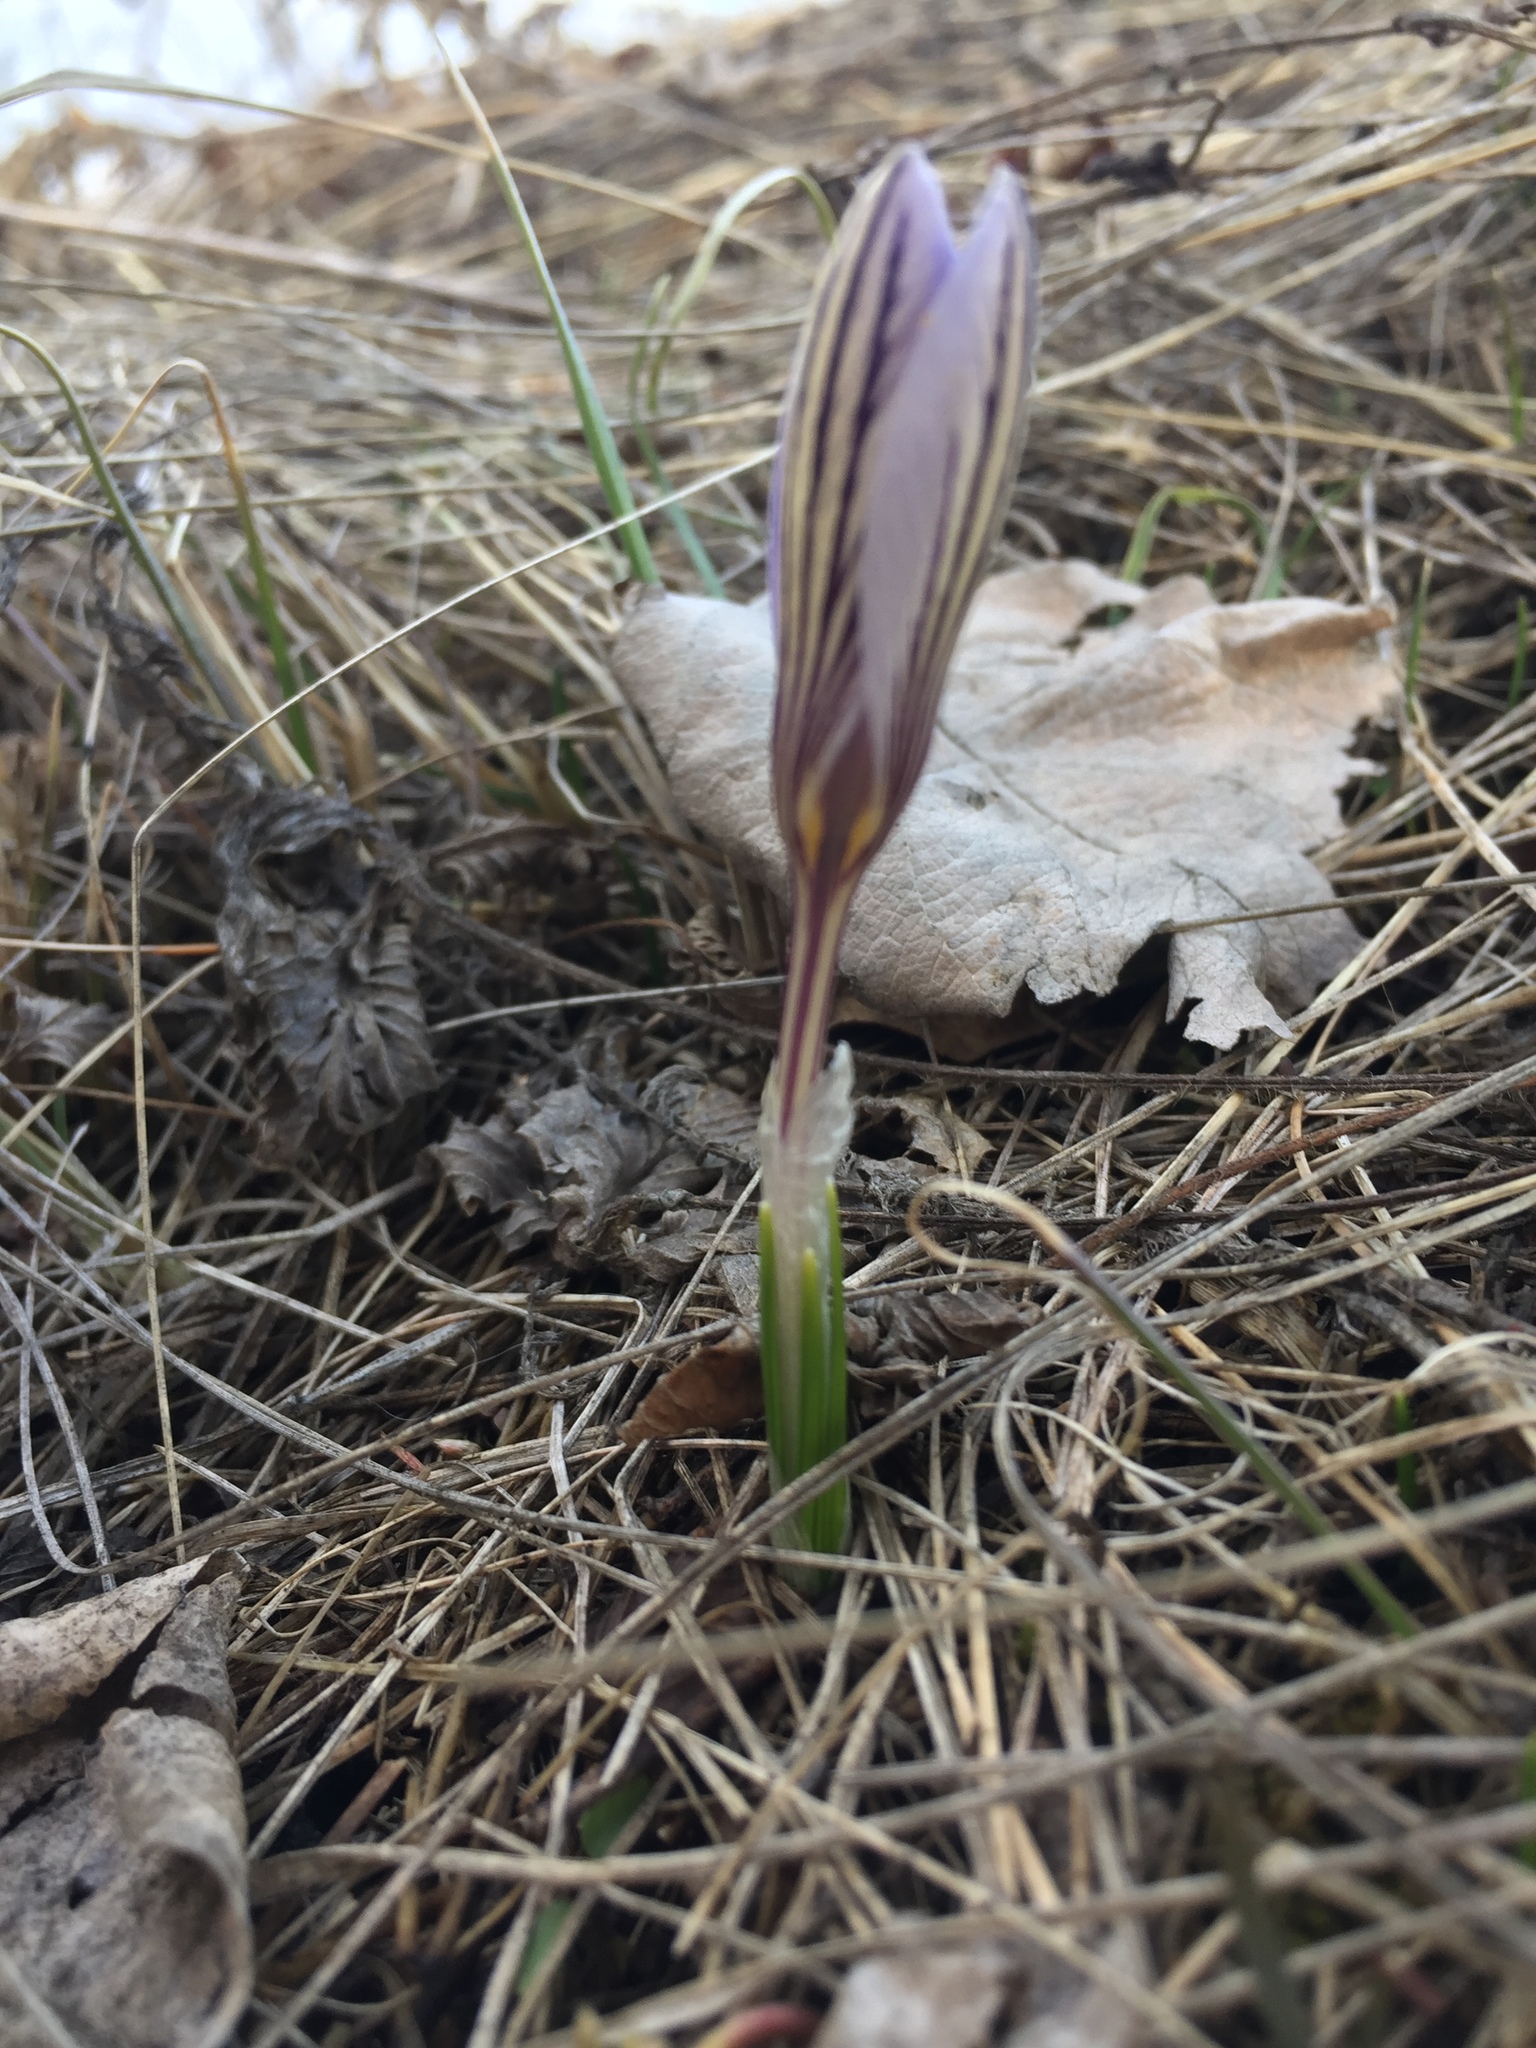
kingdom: Plantae
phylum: Tracheophyta
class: Liliopsida
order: Asparagales
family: Iridaceae
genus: Crocus
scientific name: Crocus reticulatus
